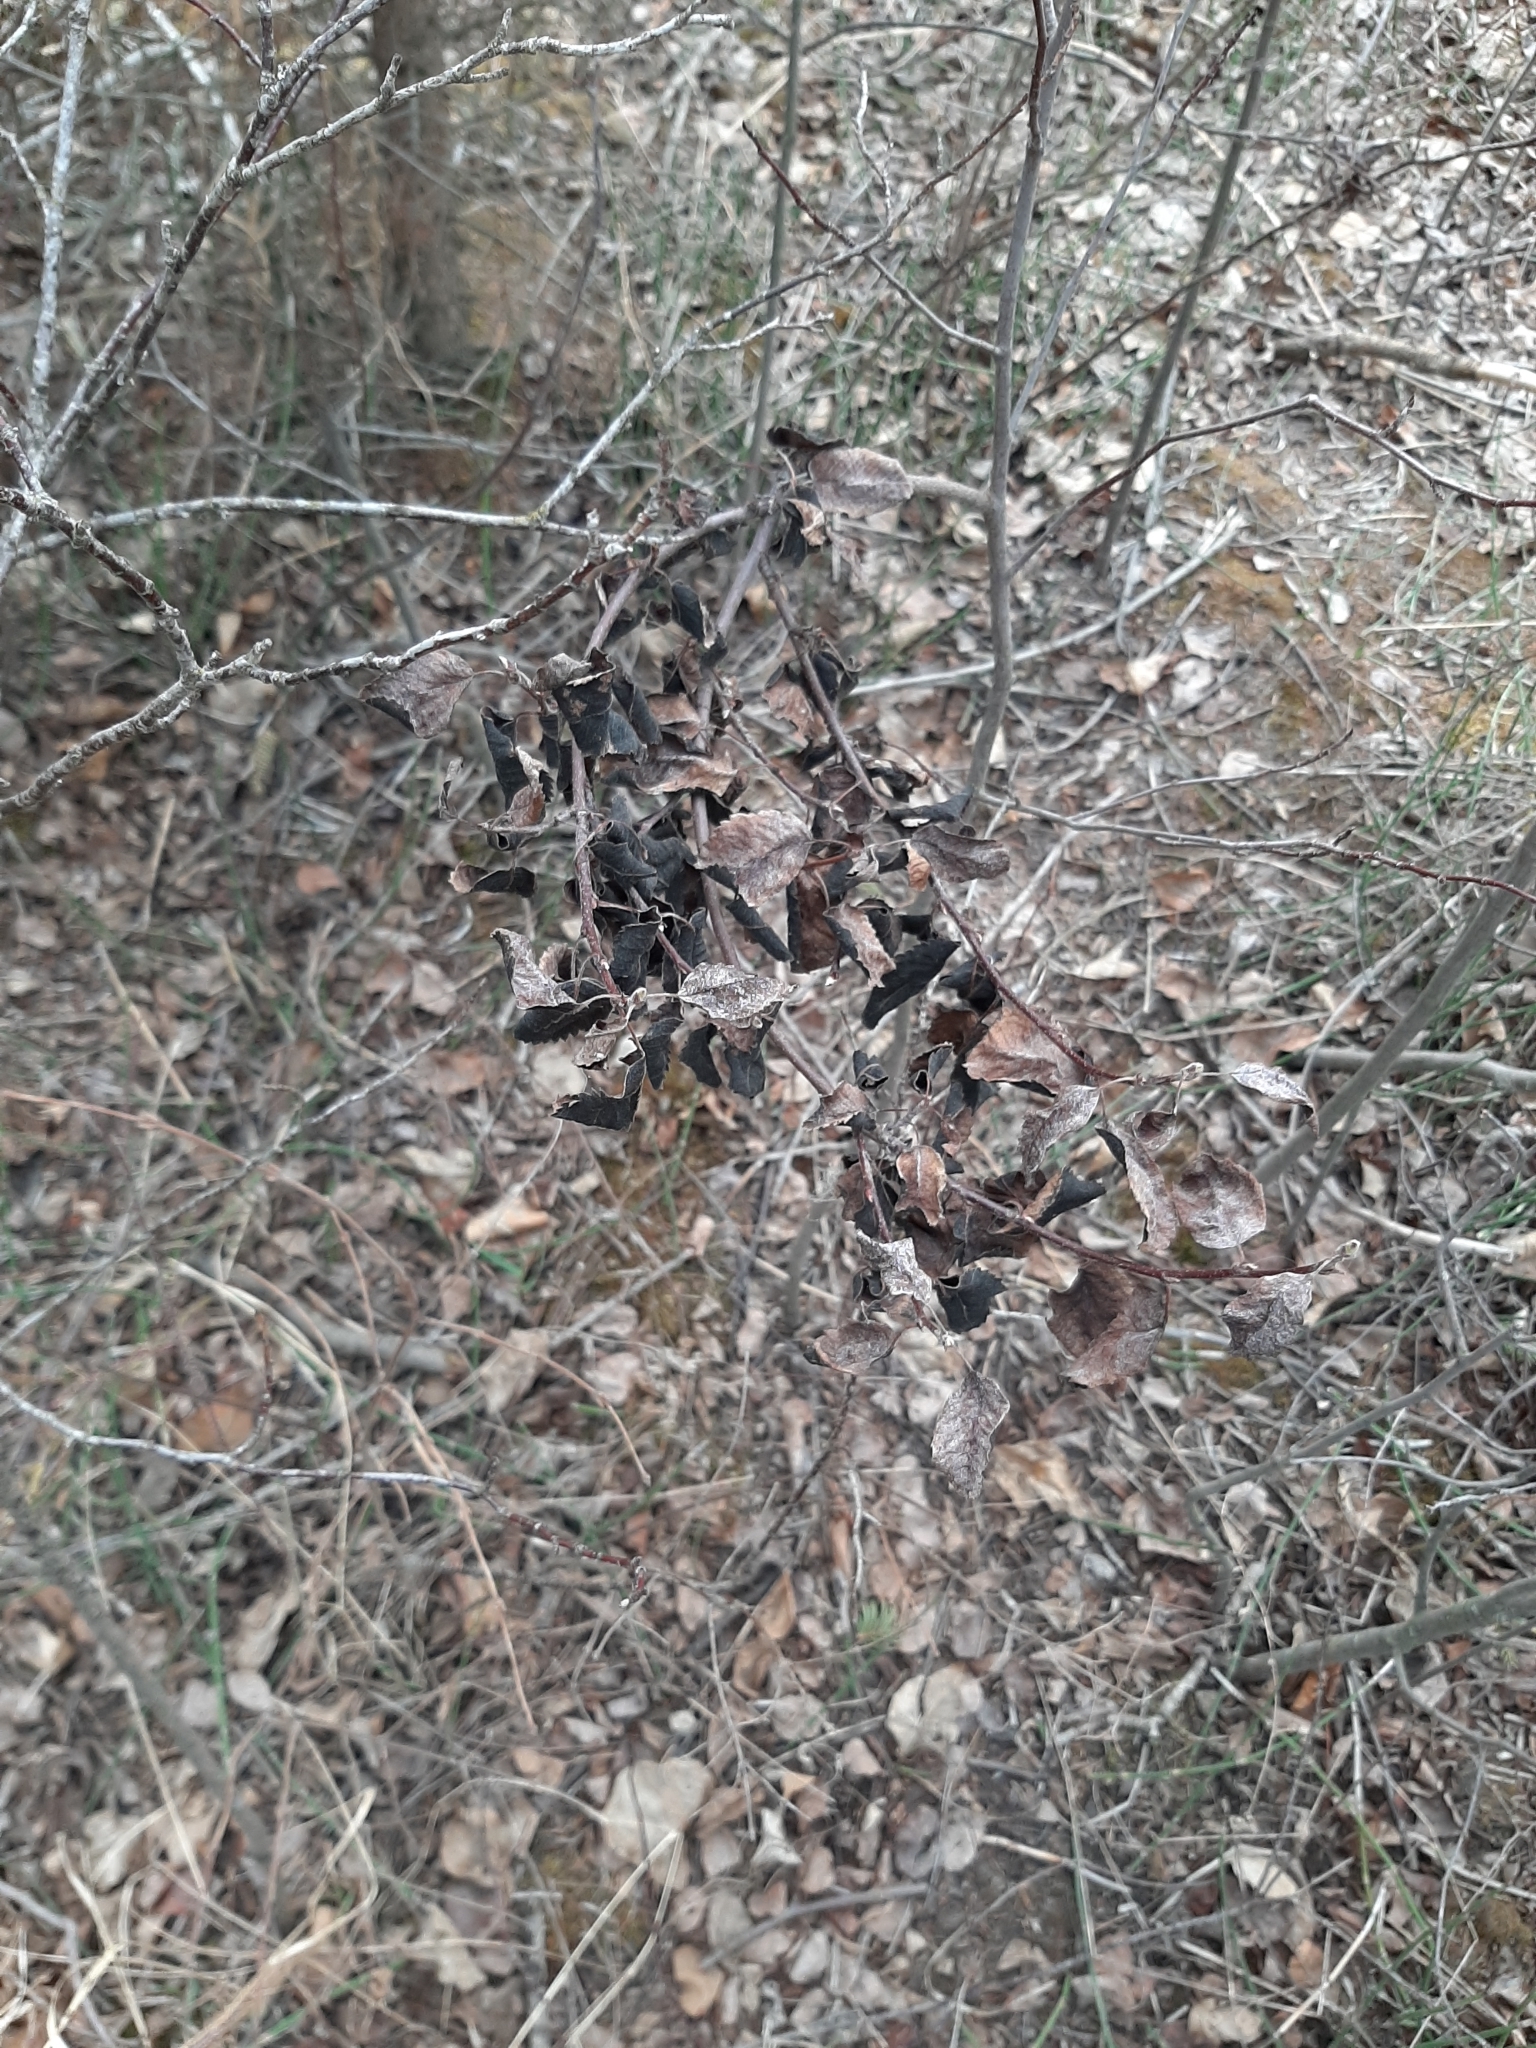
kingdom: Fungi
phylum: Ascomycota
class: Dothideomycetes
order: Venturiales
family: Venturiaceae
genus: Apiosporina
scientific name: Apiosporina collinsii
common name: Black leaf
